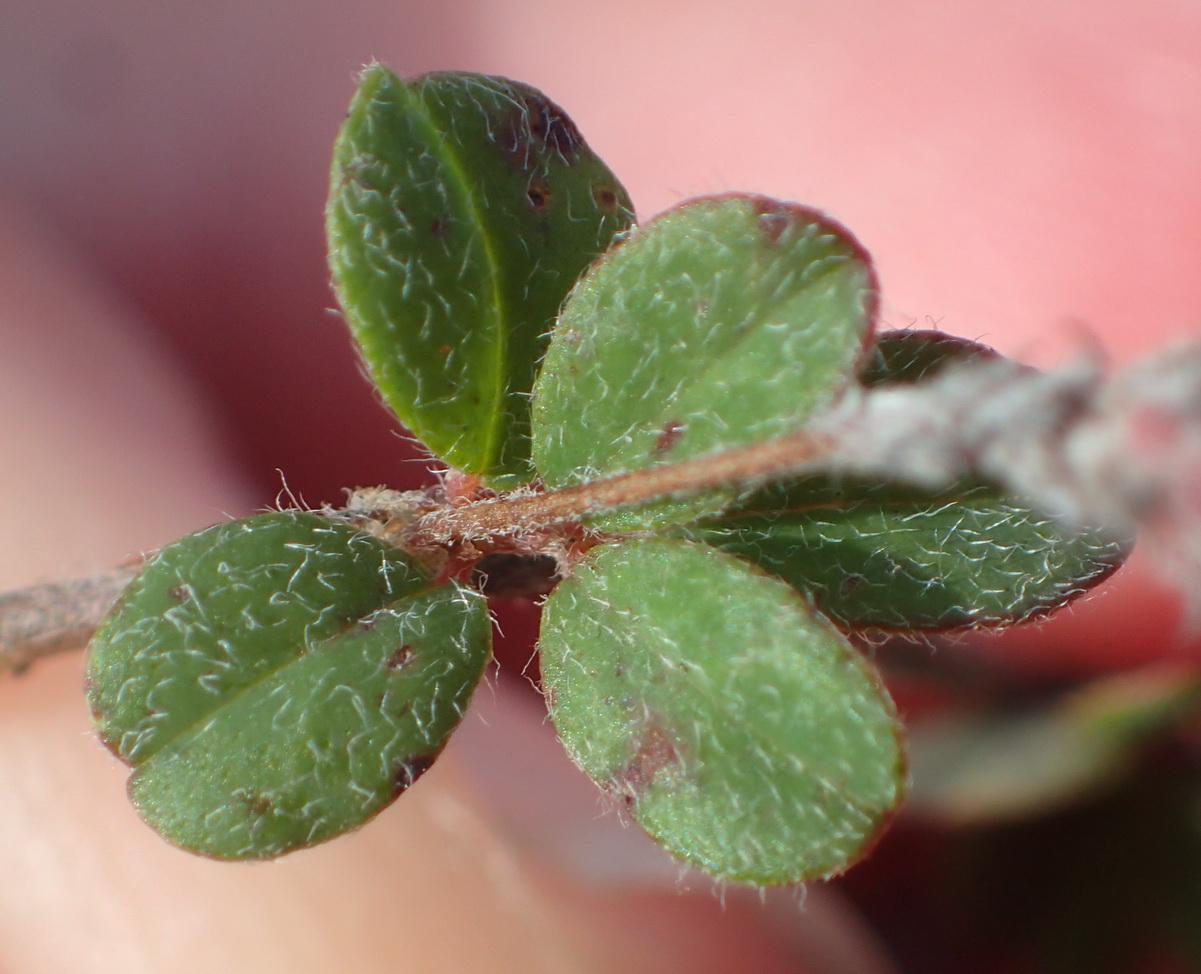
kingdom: Plantae
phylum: Tracheophyta
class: Magnoliopsida
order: Fabales
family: Fabaceae
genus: Indigofera
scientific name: Indigofera alopecuroides
